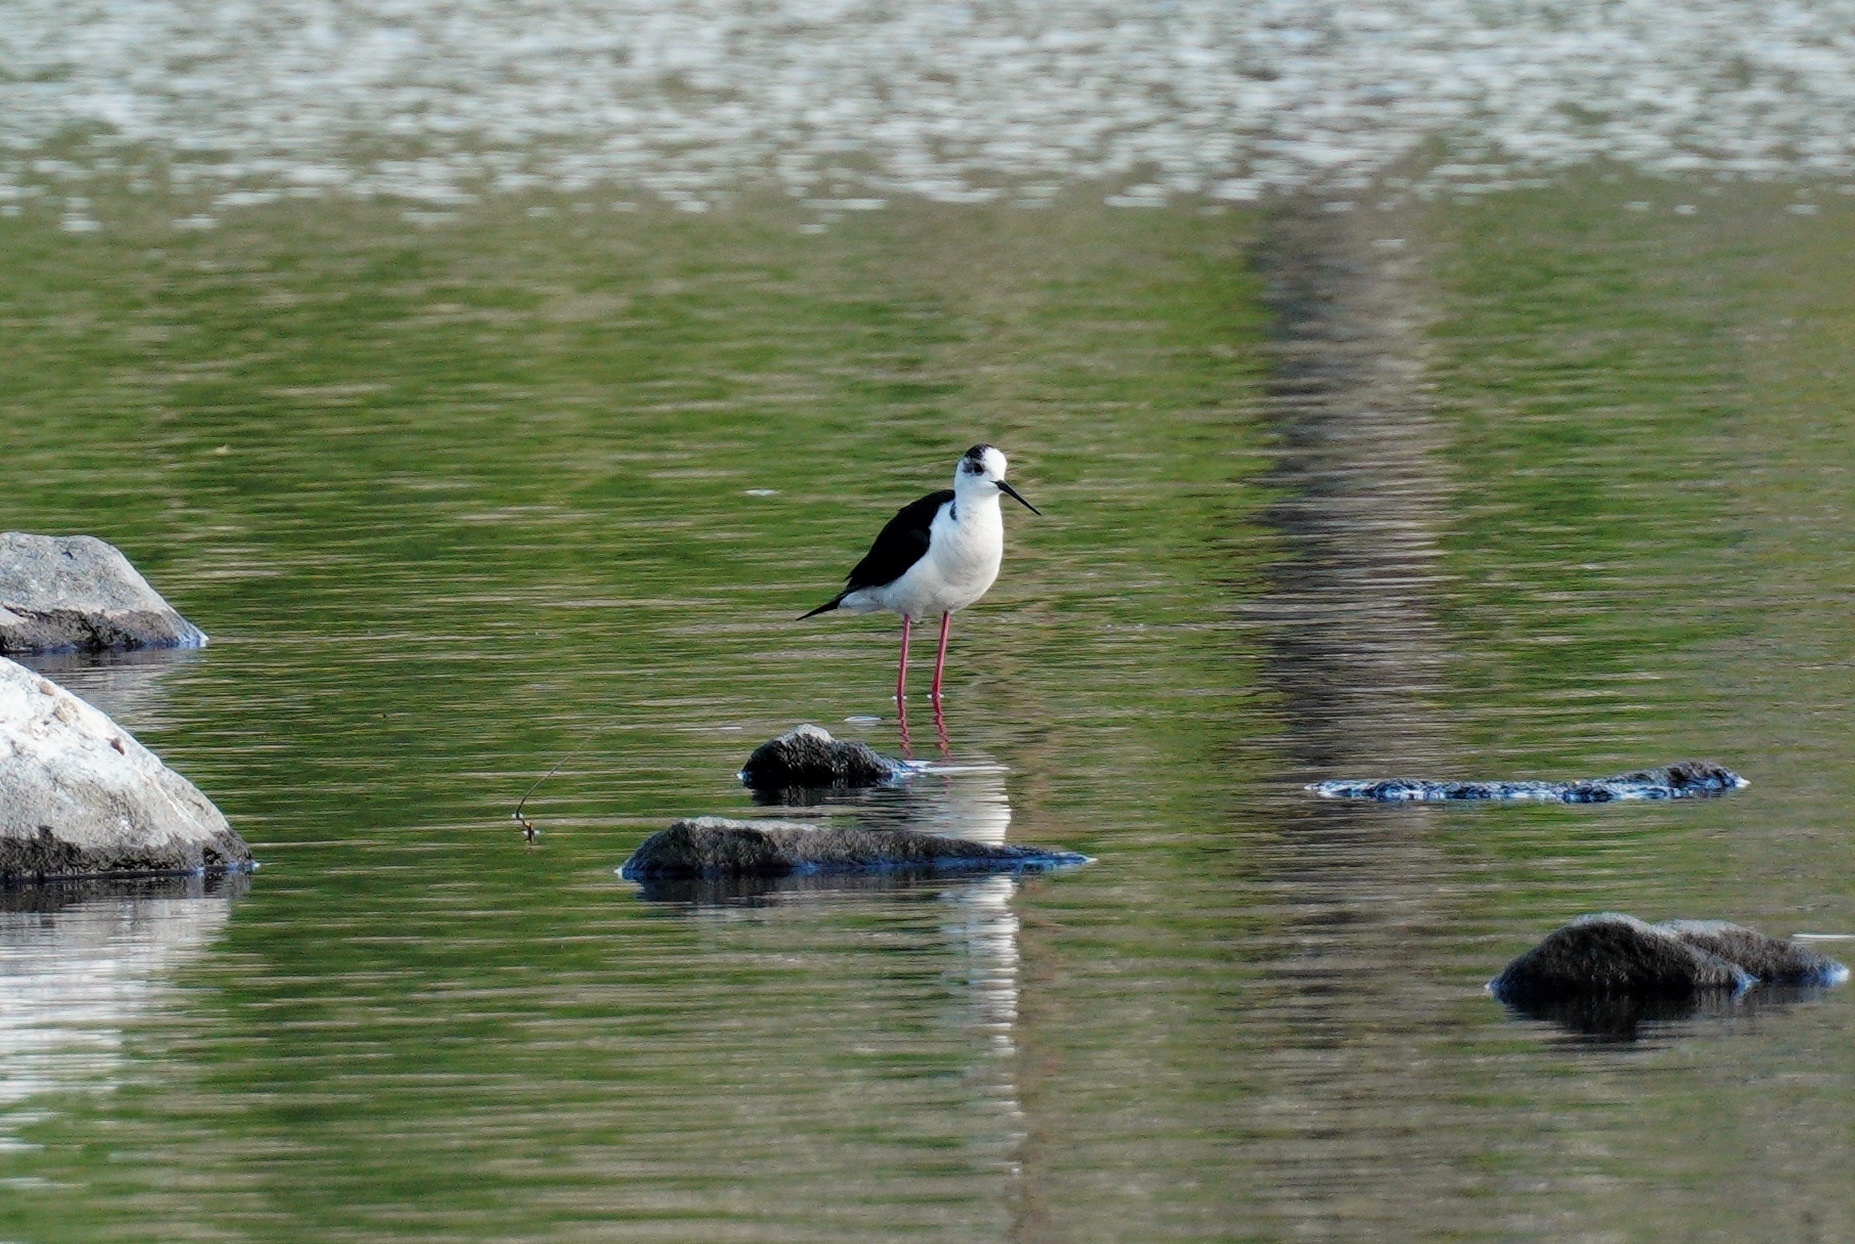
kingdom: Animalia
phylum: Chordata
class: Aves
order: Charadriiformes
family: Recurvirostridae
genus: Himantopus
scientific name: Himantopus himantopus
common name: Black-winged stilt
